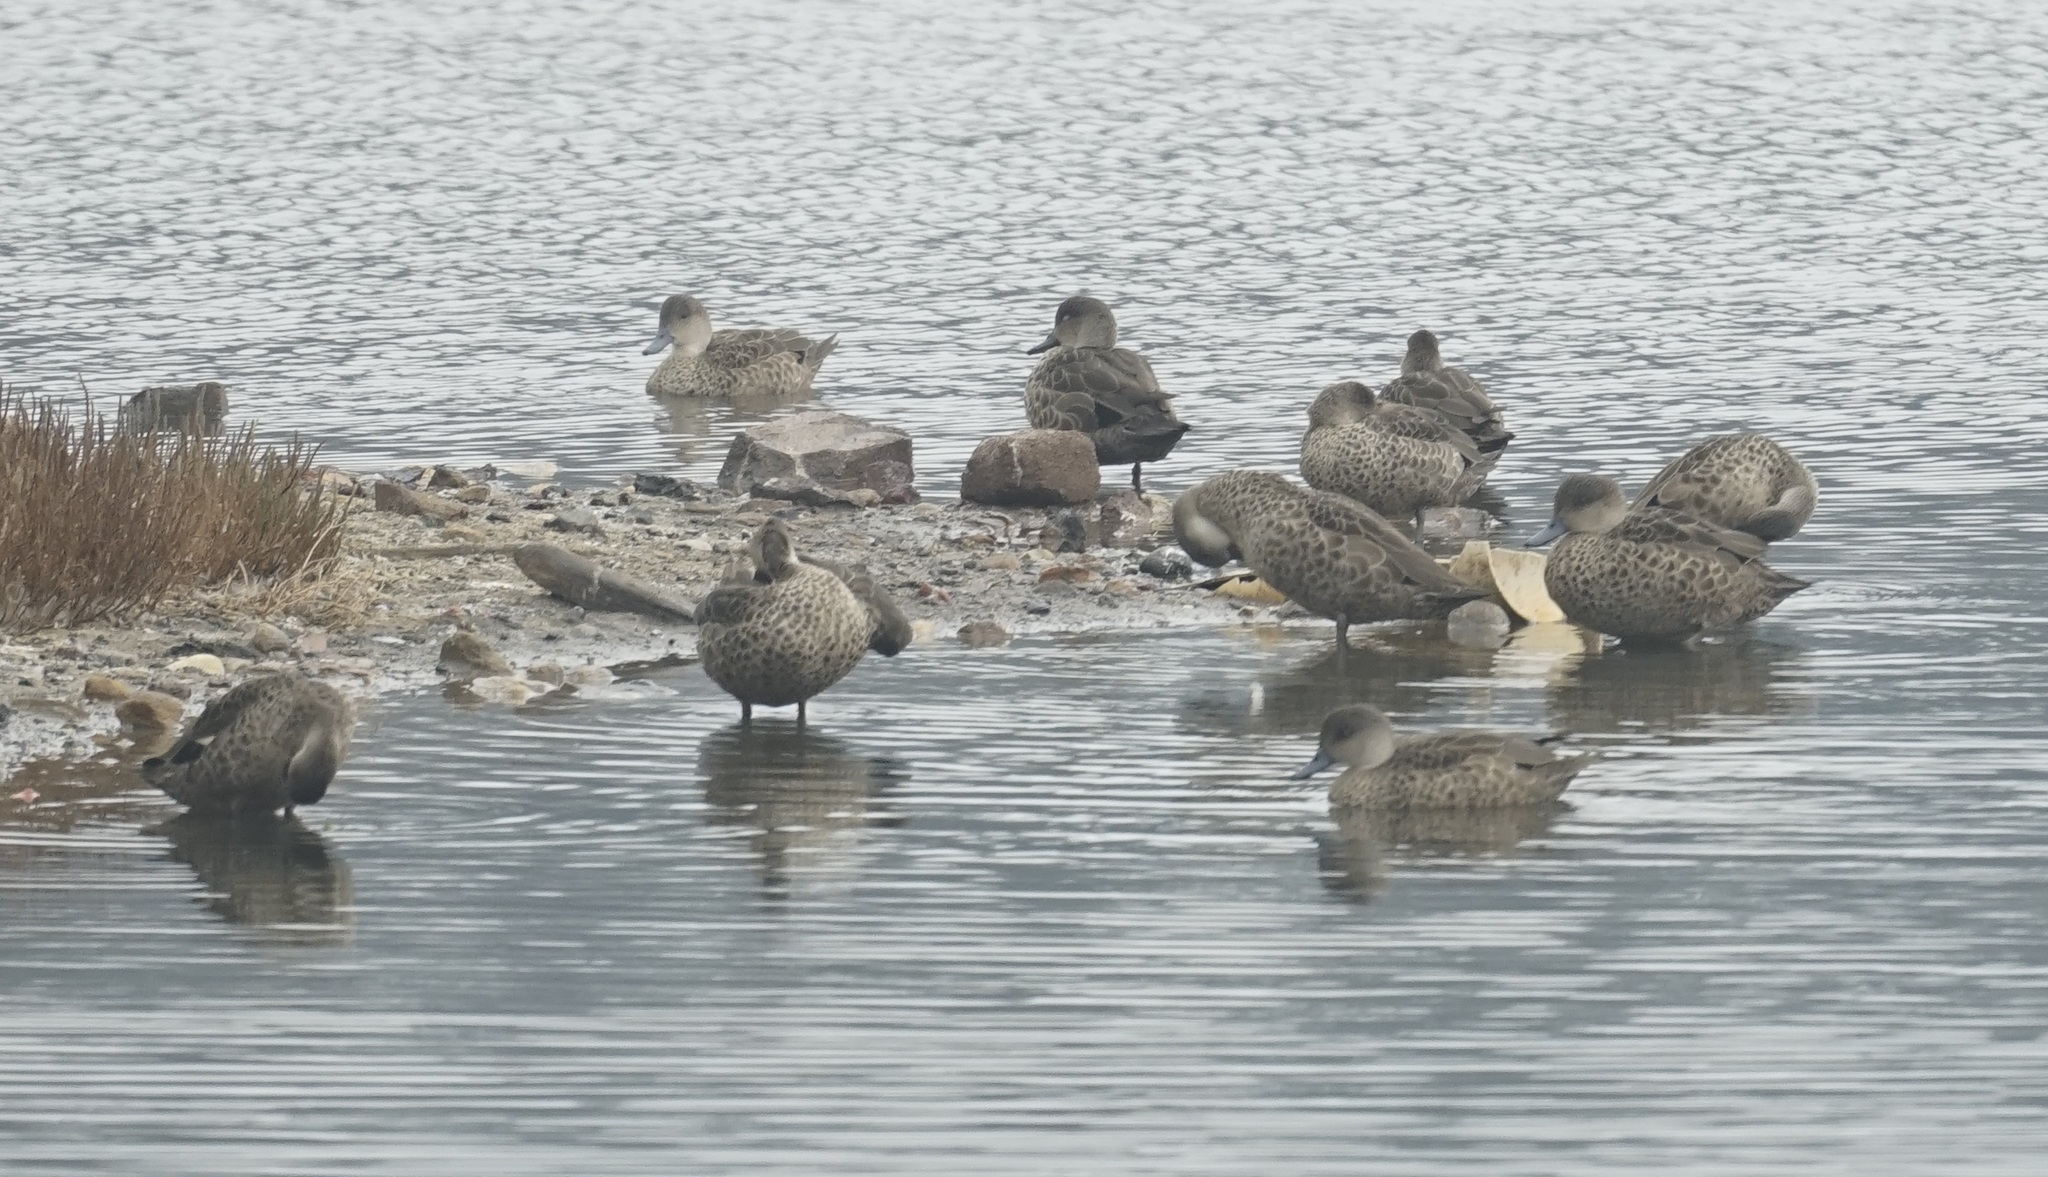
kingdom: Animalia
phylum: Chordata
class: Aves
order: Anseriformes
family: Anatidae
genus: Anas
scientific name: Anas gracilis
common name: Grey teal
